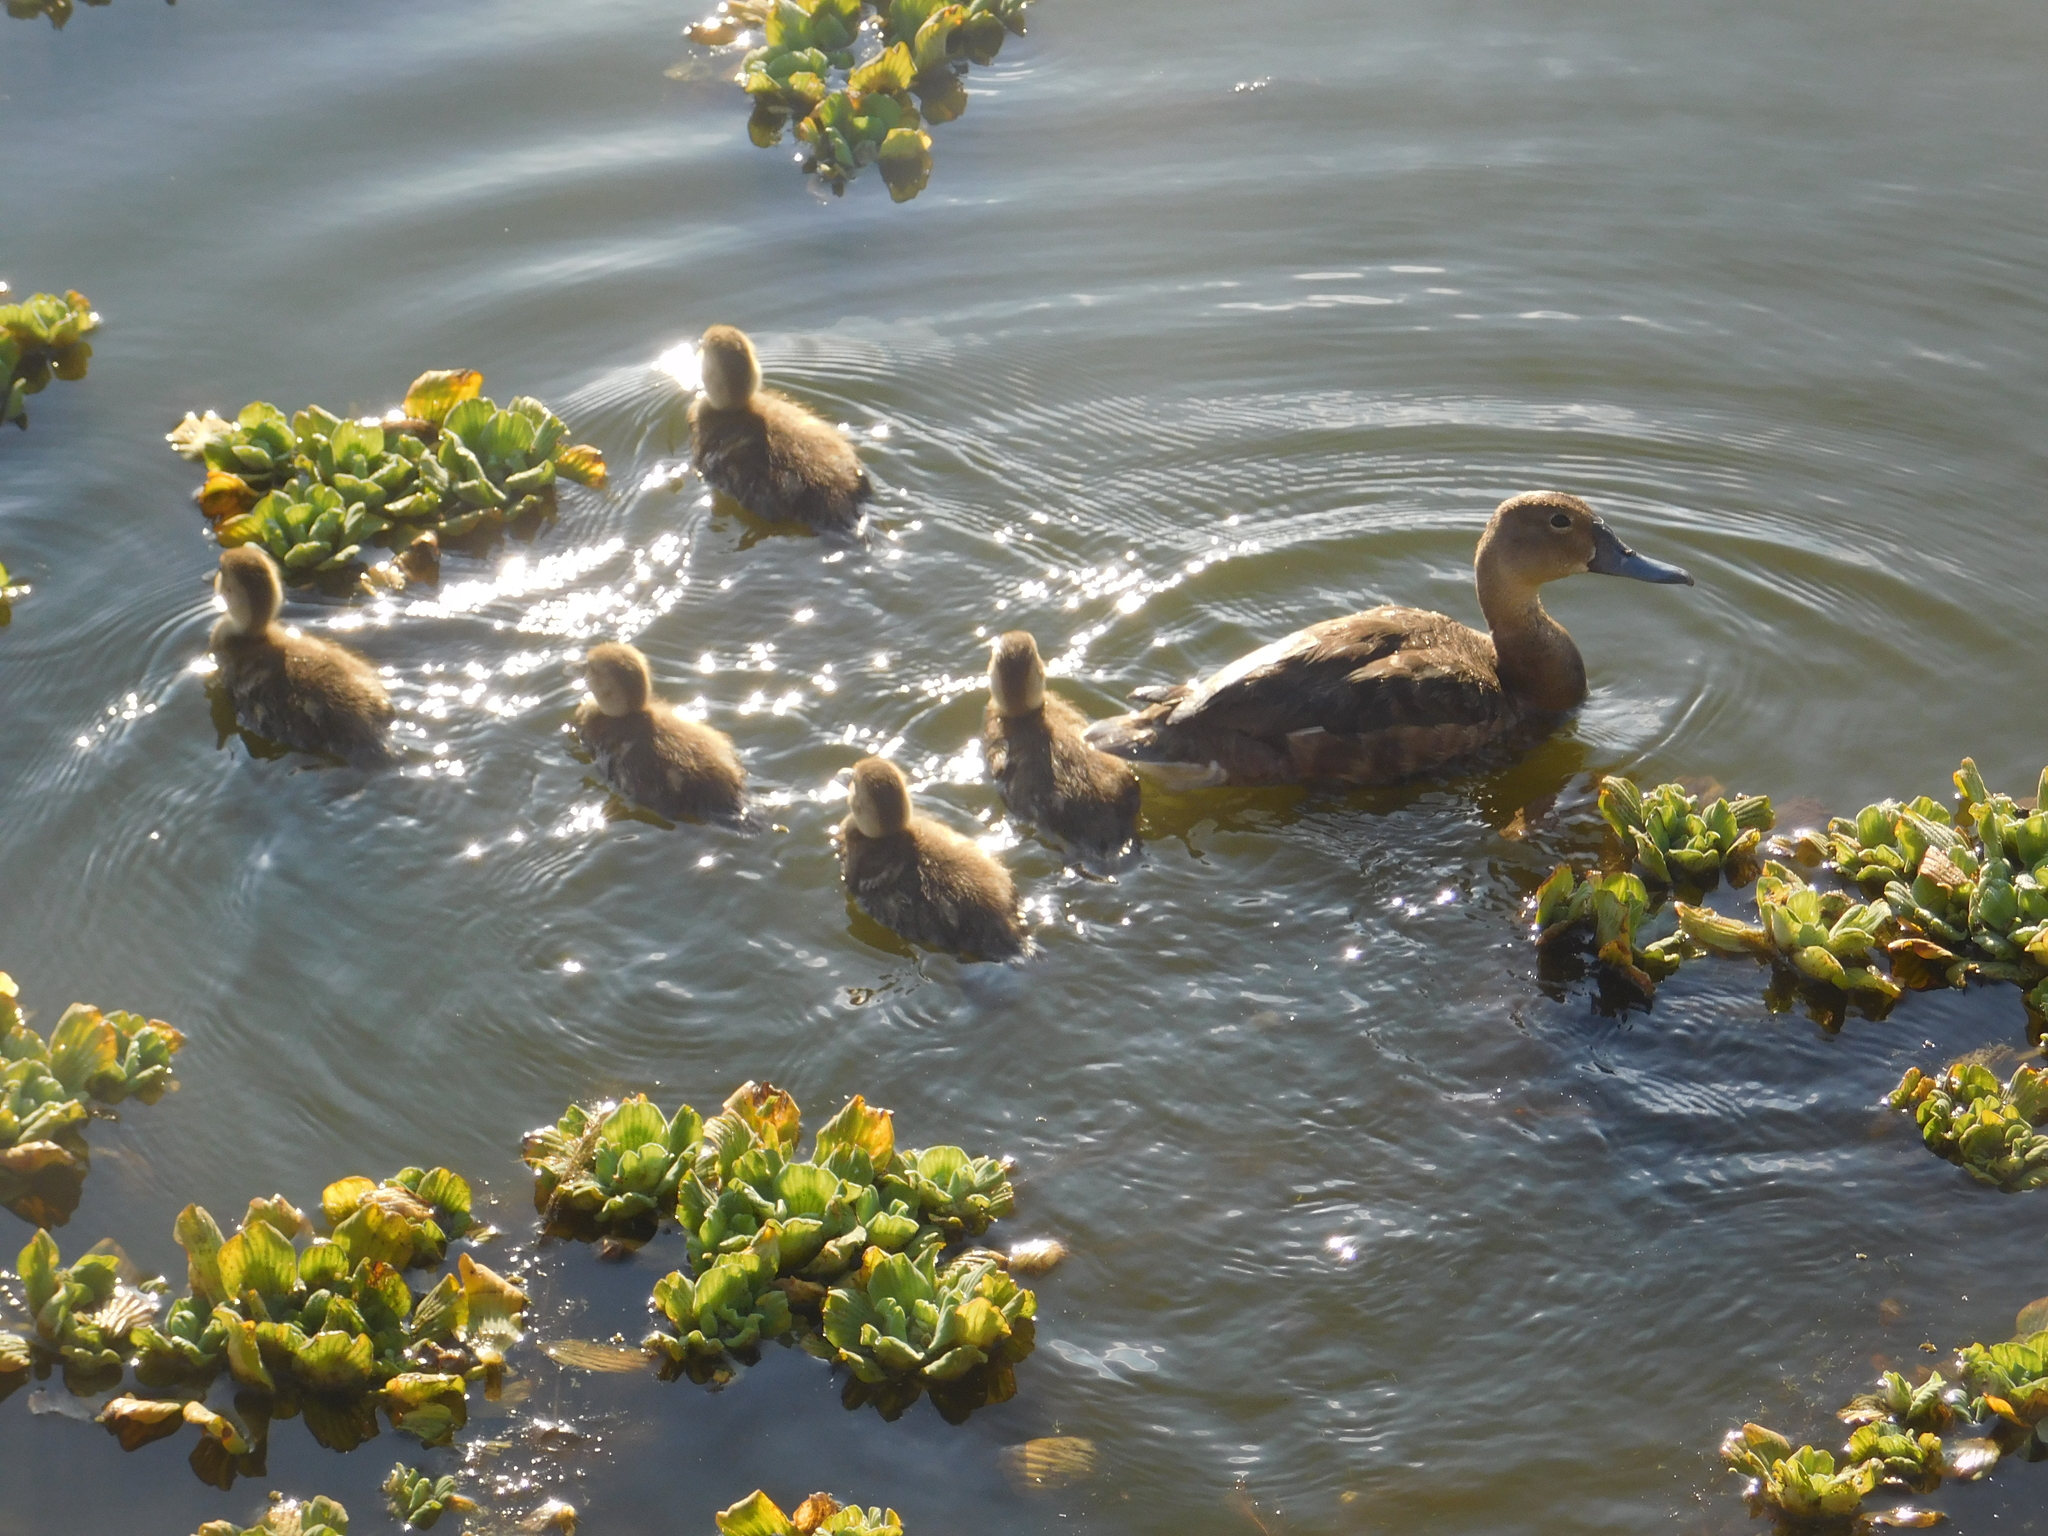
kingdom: Animalia
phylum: Chordata
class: Aves
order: Anseriformes
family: Anatidae
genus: Netta
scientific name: Netta peposaca
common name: Rosy-billed pochard
